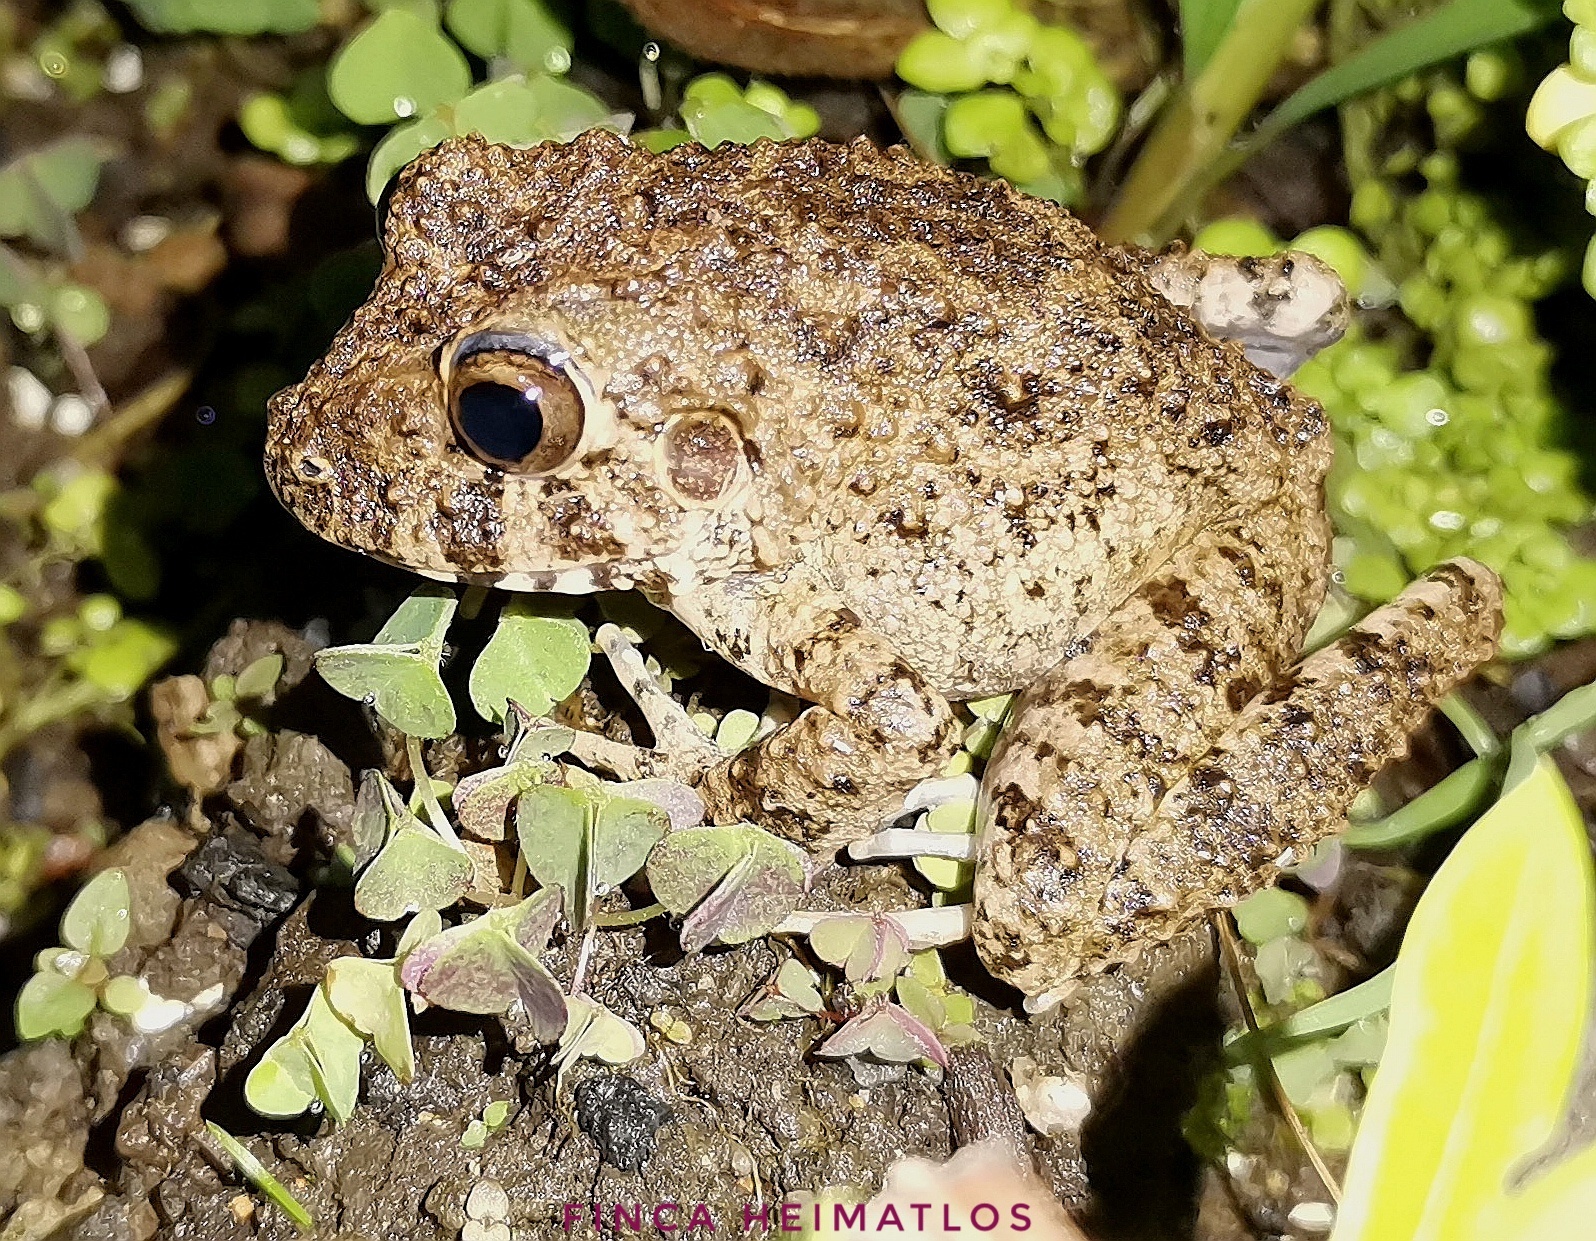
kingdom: Animalia
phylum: Chordata
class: Amphibia
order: Anura
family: Craugastoridae
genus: Oreobates
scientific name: Oreobates quixensis
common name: Common big-headed frog
